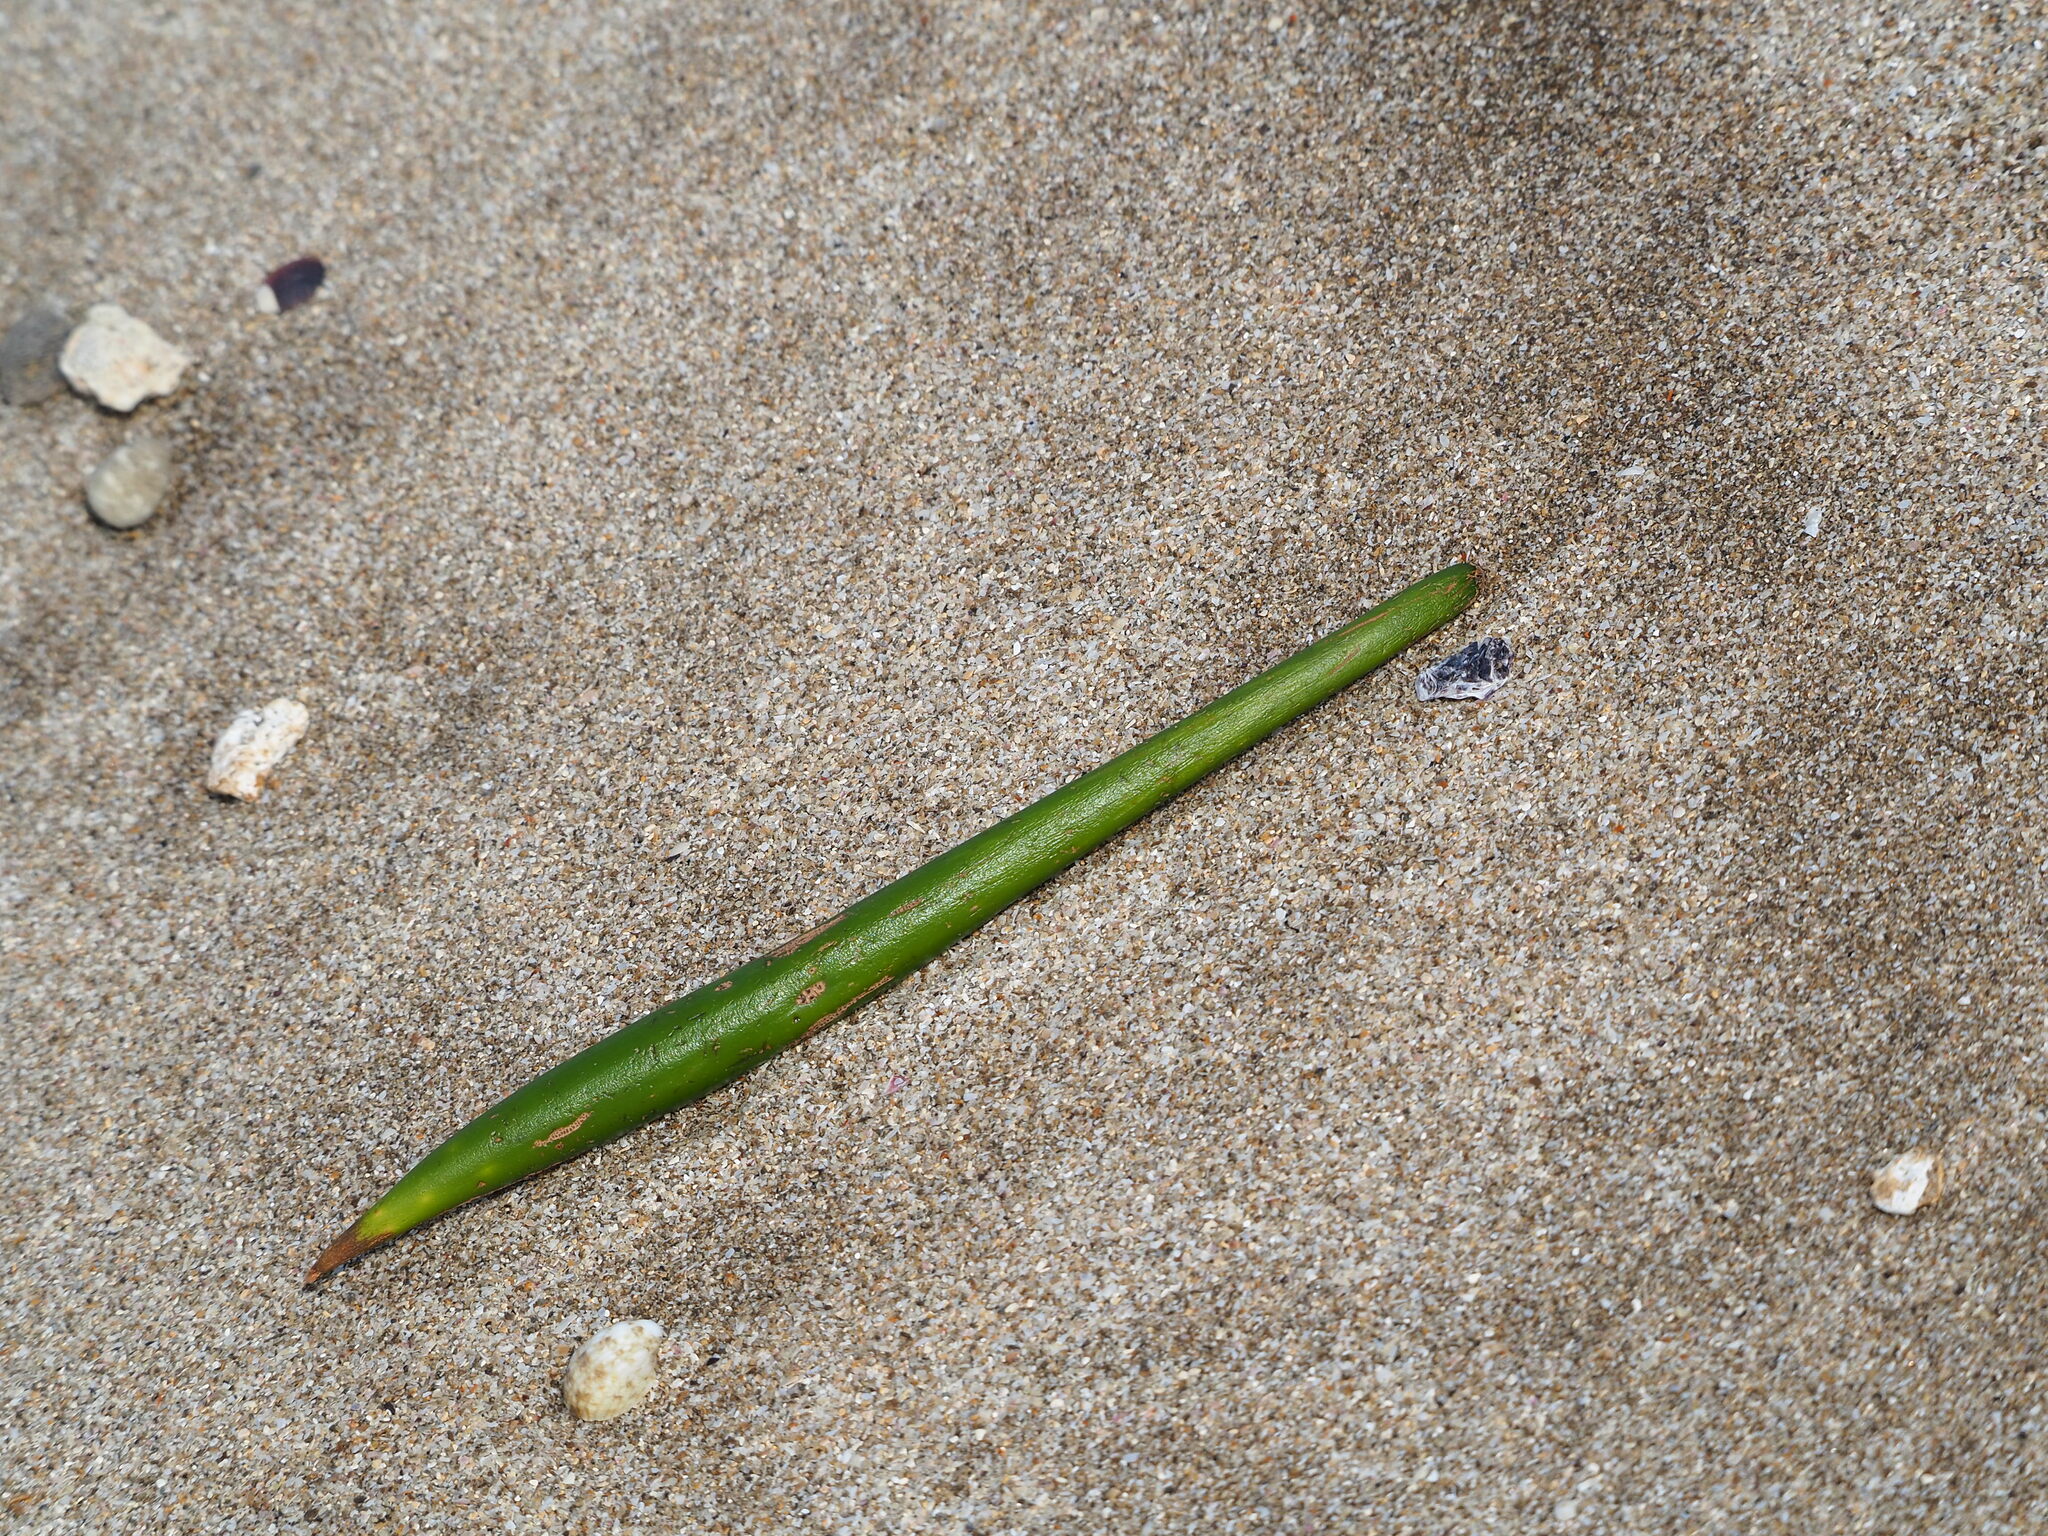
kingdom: Plantae
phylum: Tracheophyta
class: Magnoliopsida
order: Malpighiales
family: Rhizophoraceae
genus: Kandelia
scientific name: Kandelia obovata
